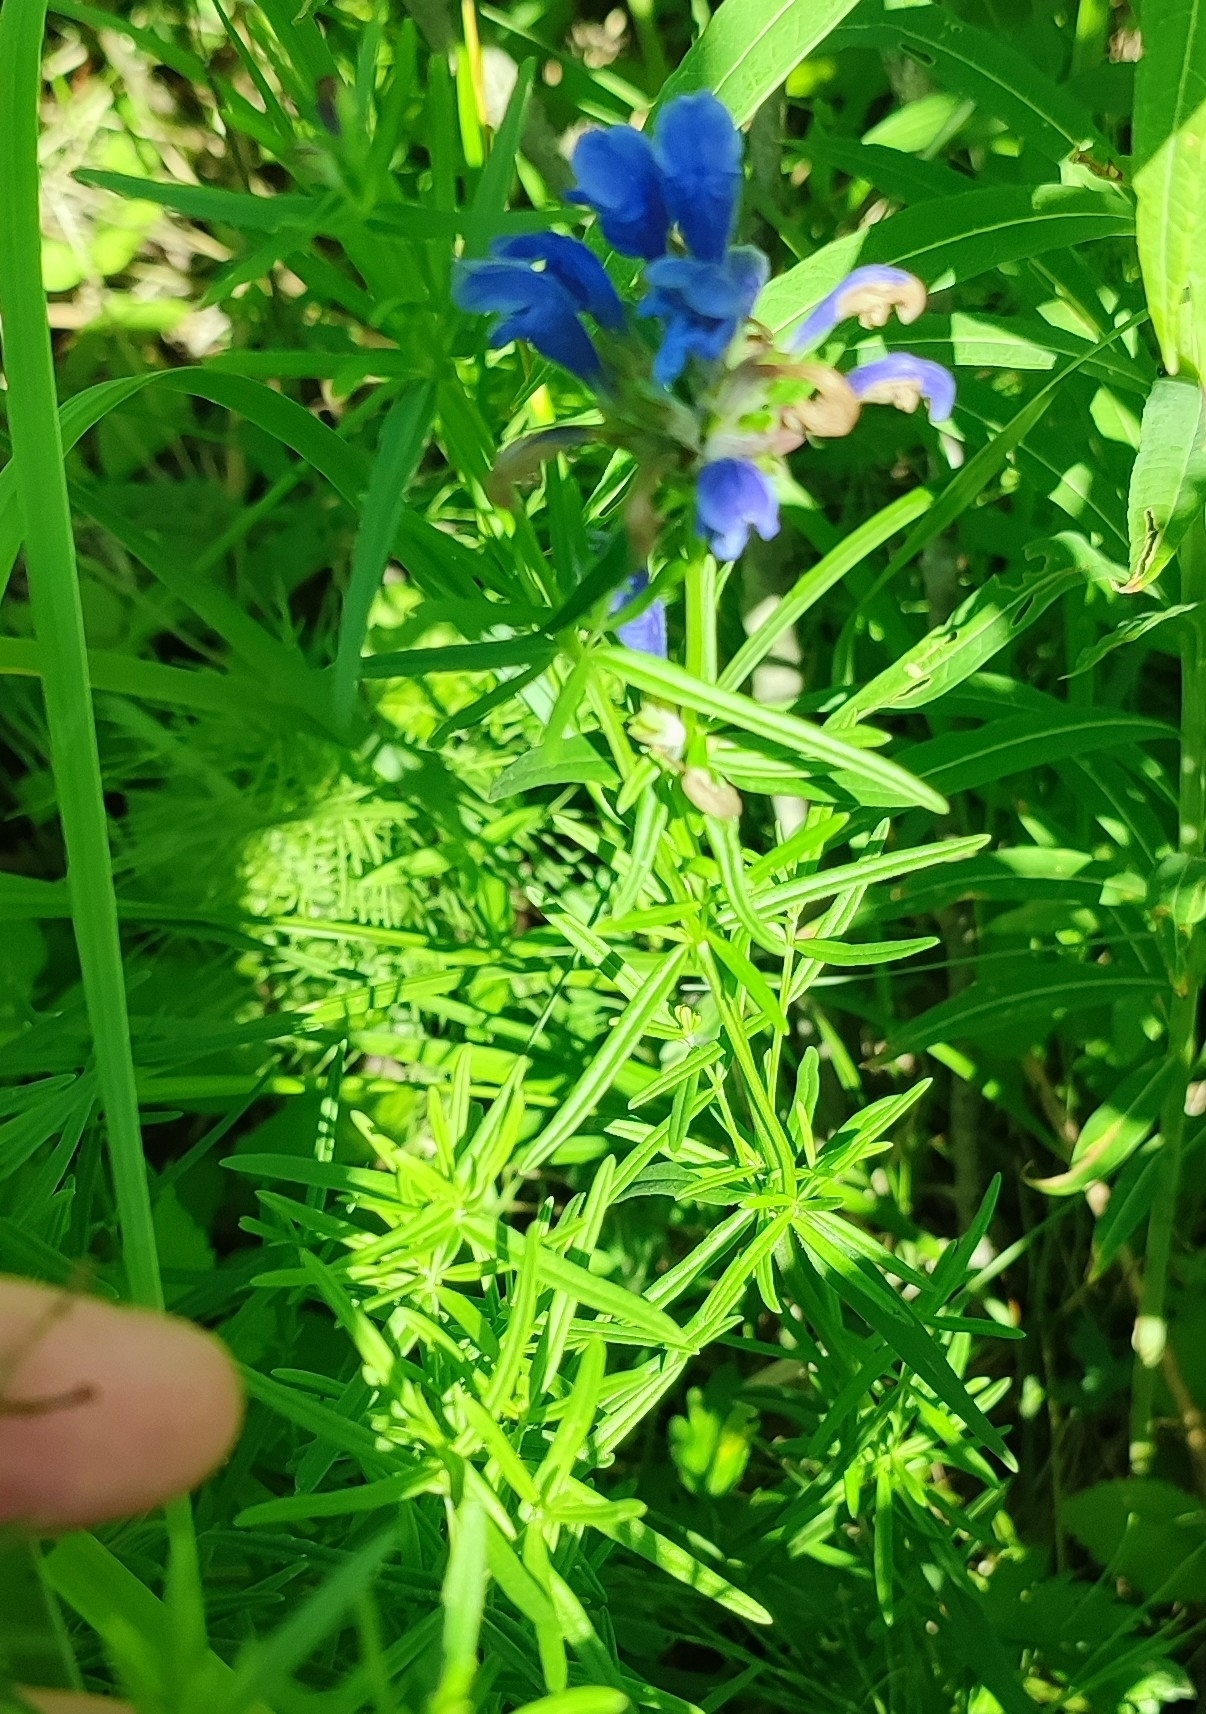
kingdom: Plantae
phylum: Tracheophyta
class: Magnoliopsida
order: Lamiales
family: Lamiaceae
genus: Dracocephalum
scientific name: Dracocephalum ruyschiana
